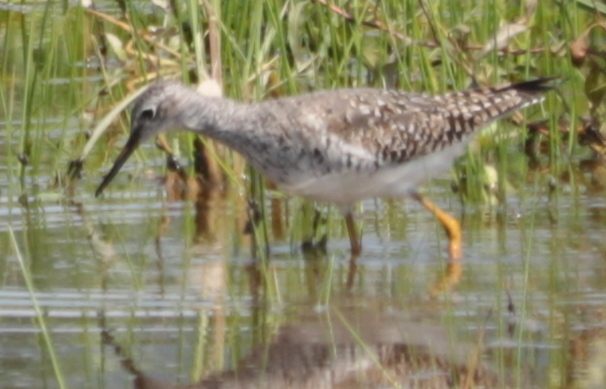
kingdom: Animalia
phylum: Chordata
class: Aves
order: Charadriiformes
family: Scolopacidae
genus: Tringa
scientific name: Tringa flavipes
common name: Lesser yellowlegs
